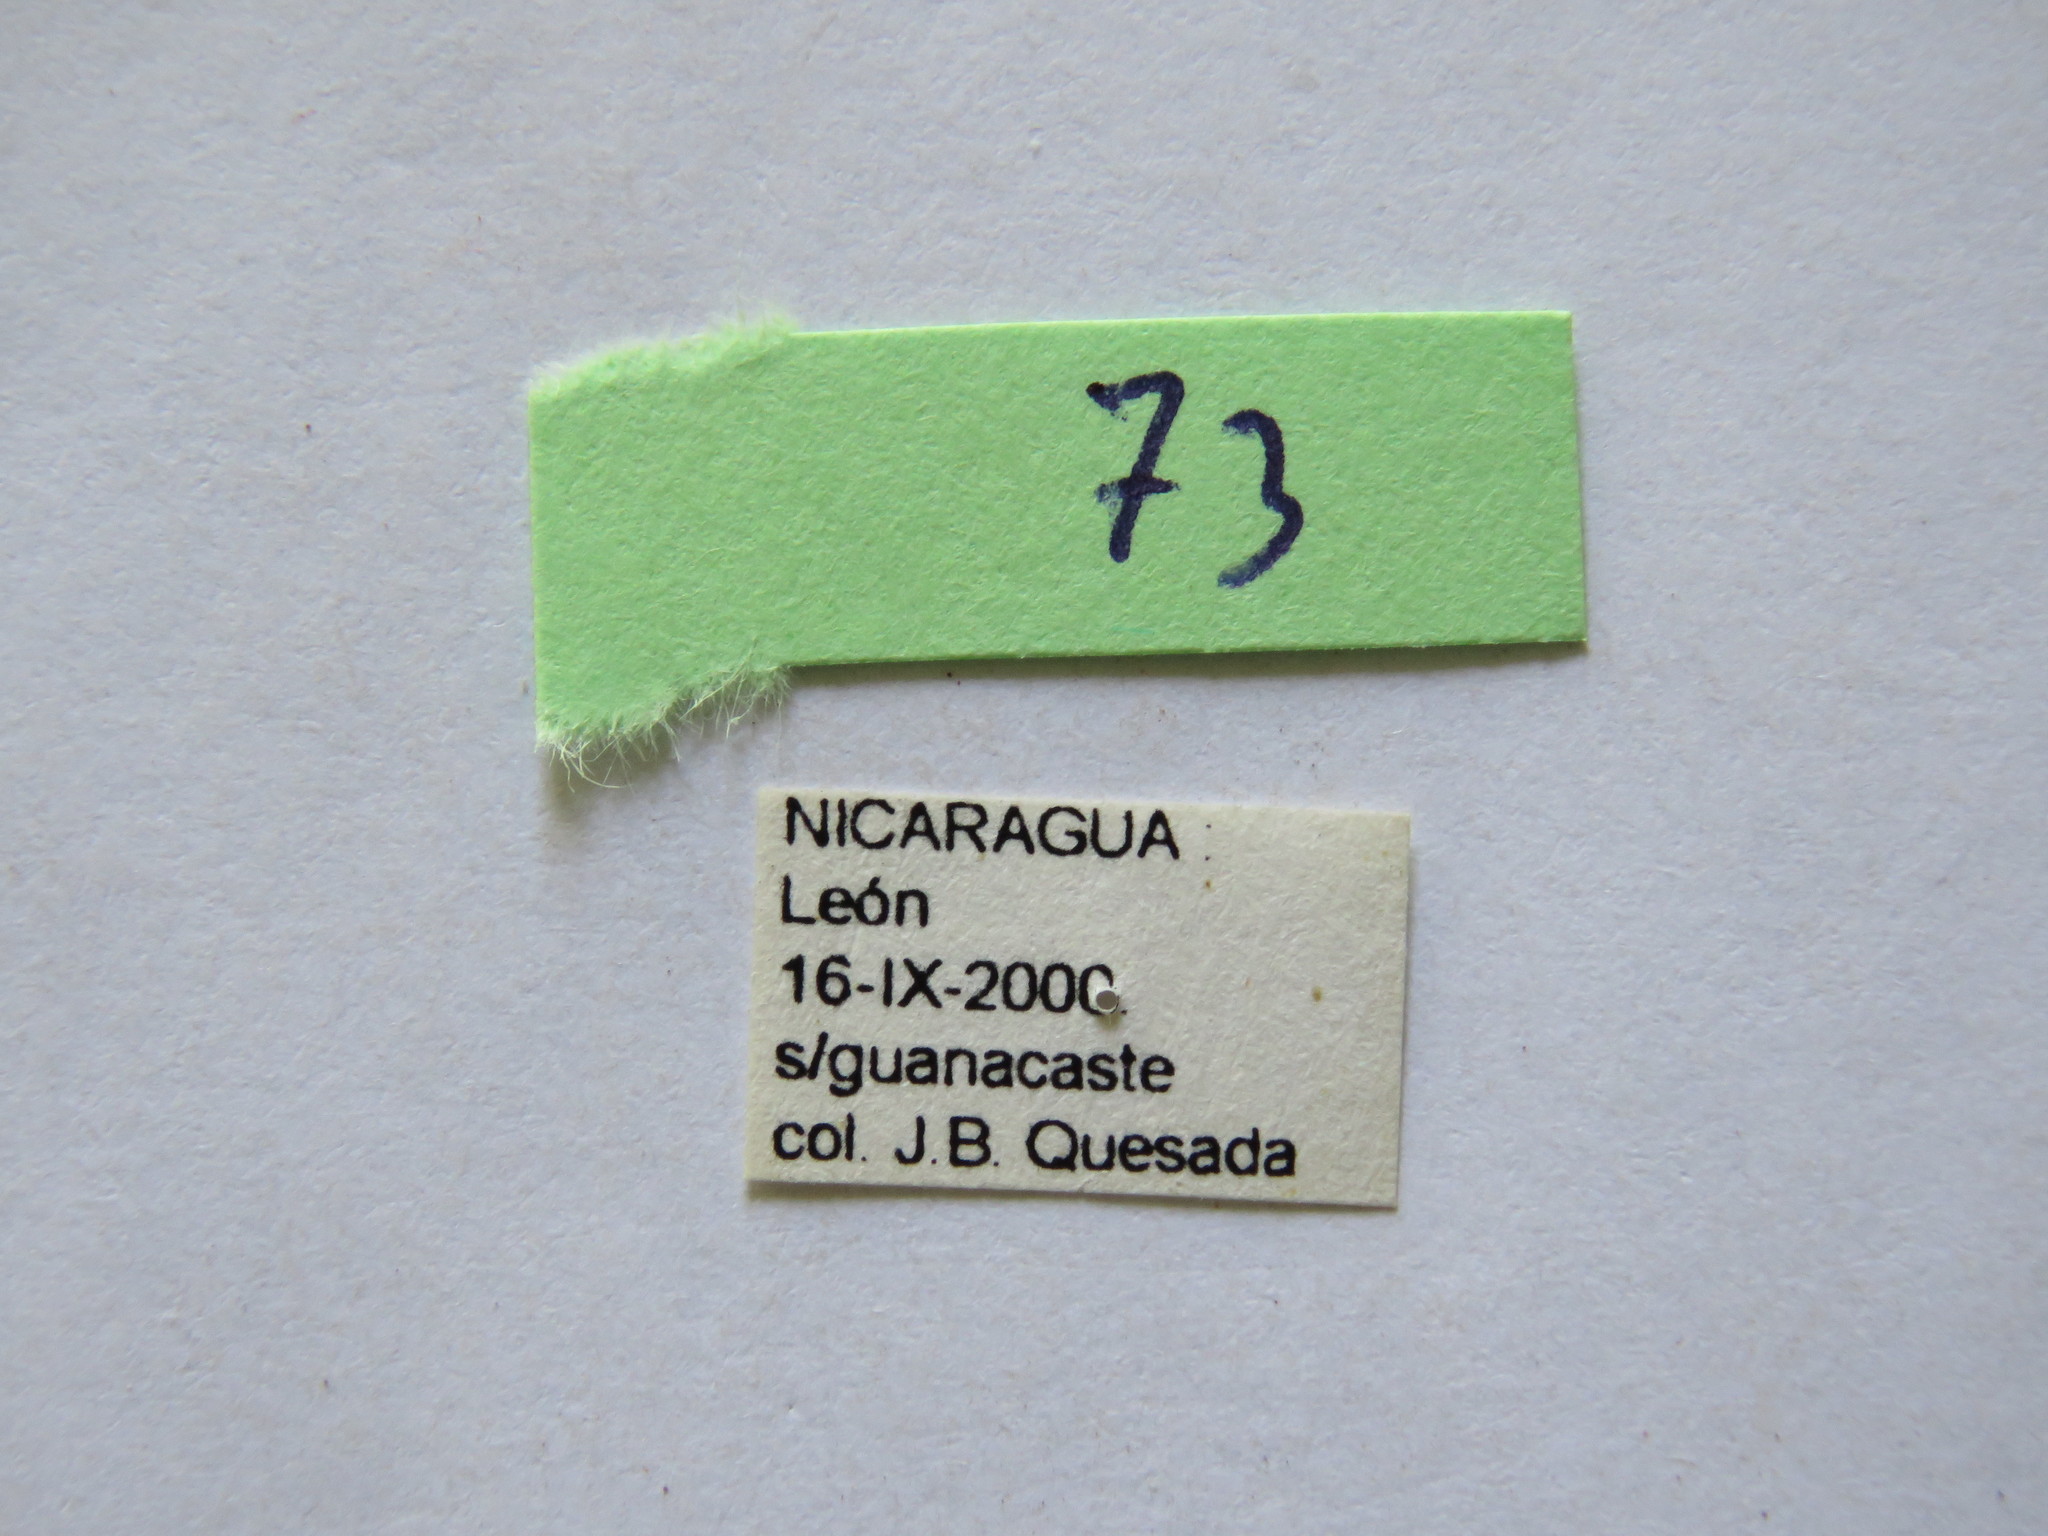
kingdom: Animalia
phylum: Arthropoda
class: Insecta
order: Hemiptera
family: Coreidae
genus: Pachylis
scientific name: Pachylis nervosus
